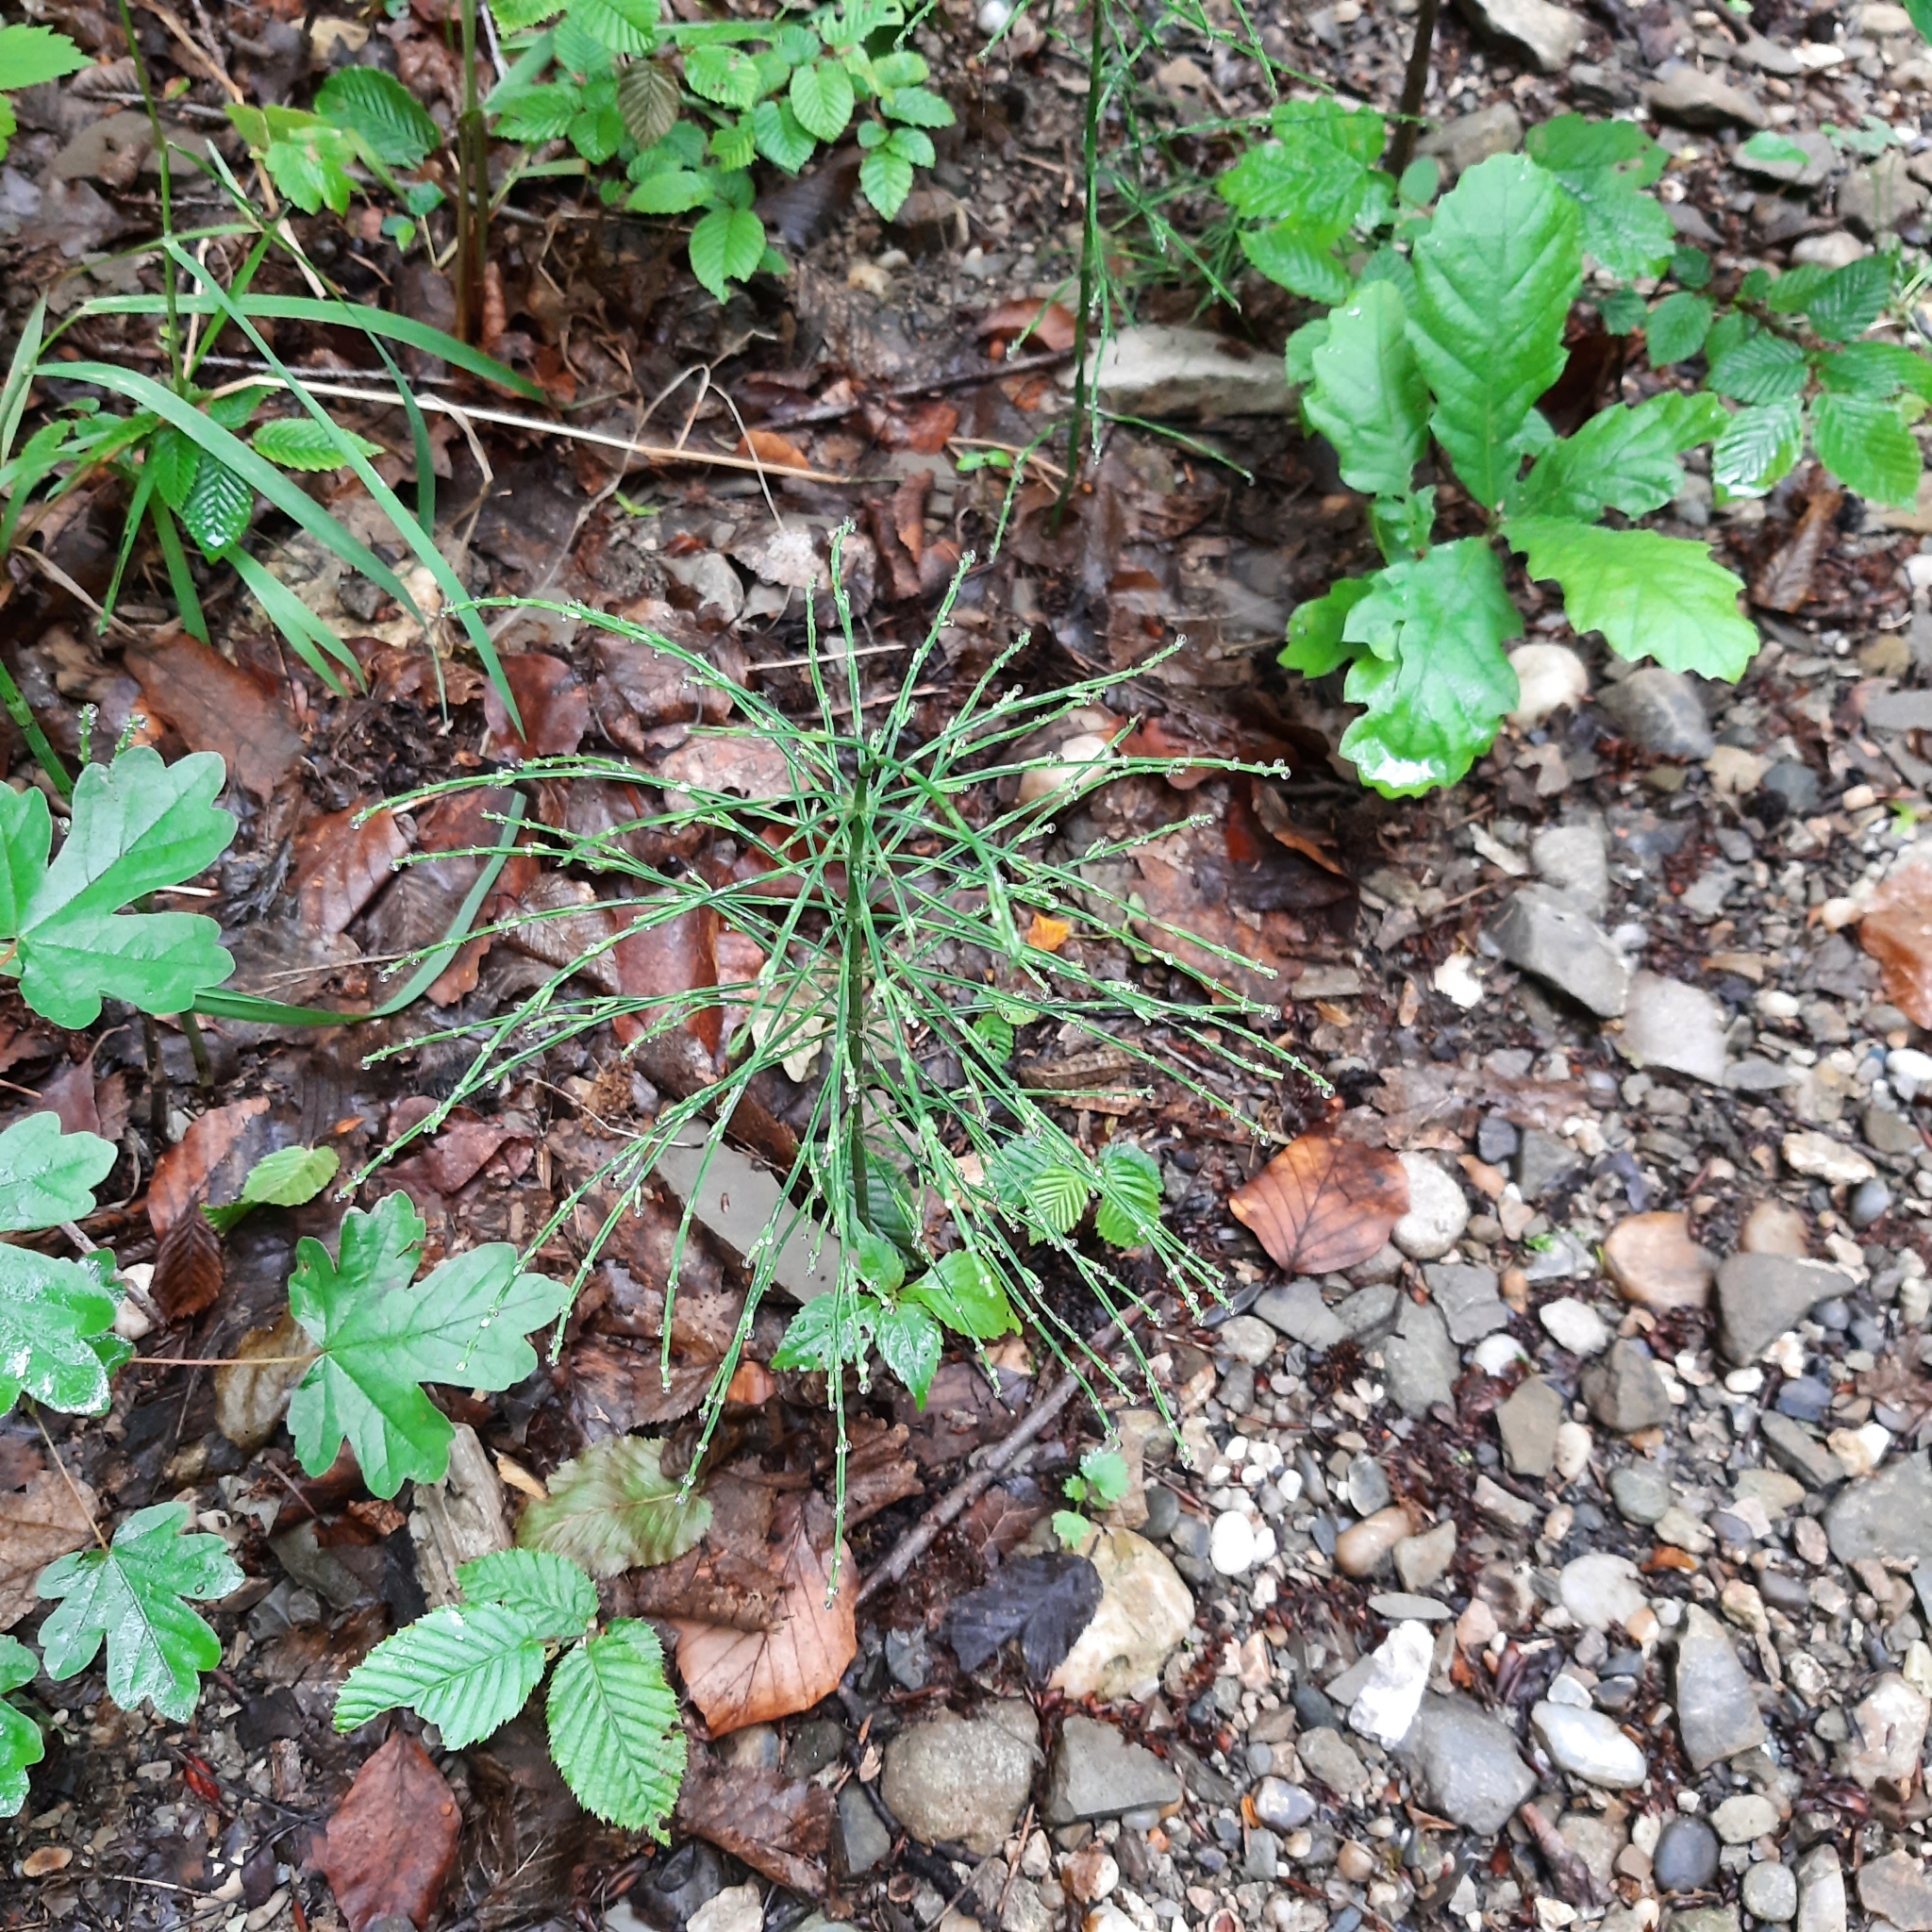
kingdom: Plantae
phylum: Tracheophyta
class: Polypodiopsida
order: Equisetales
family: Equisetaceae
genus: Equisetum
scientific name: Equisetum arvense
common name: Field horsetail
